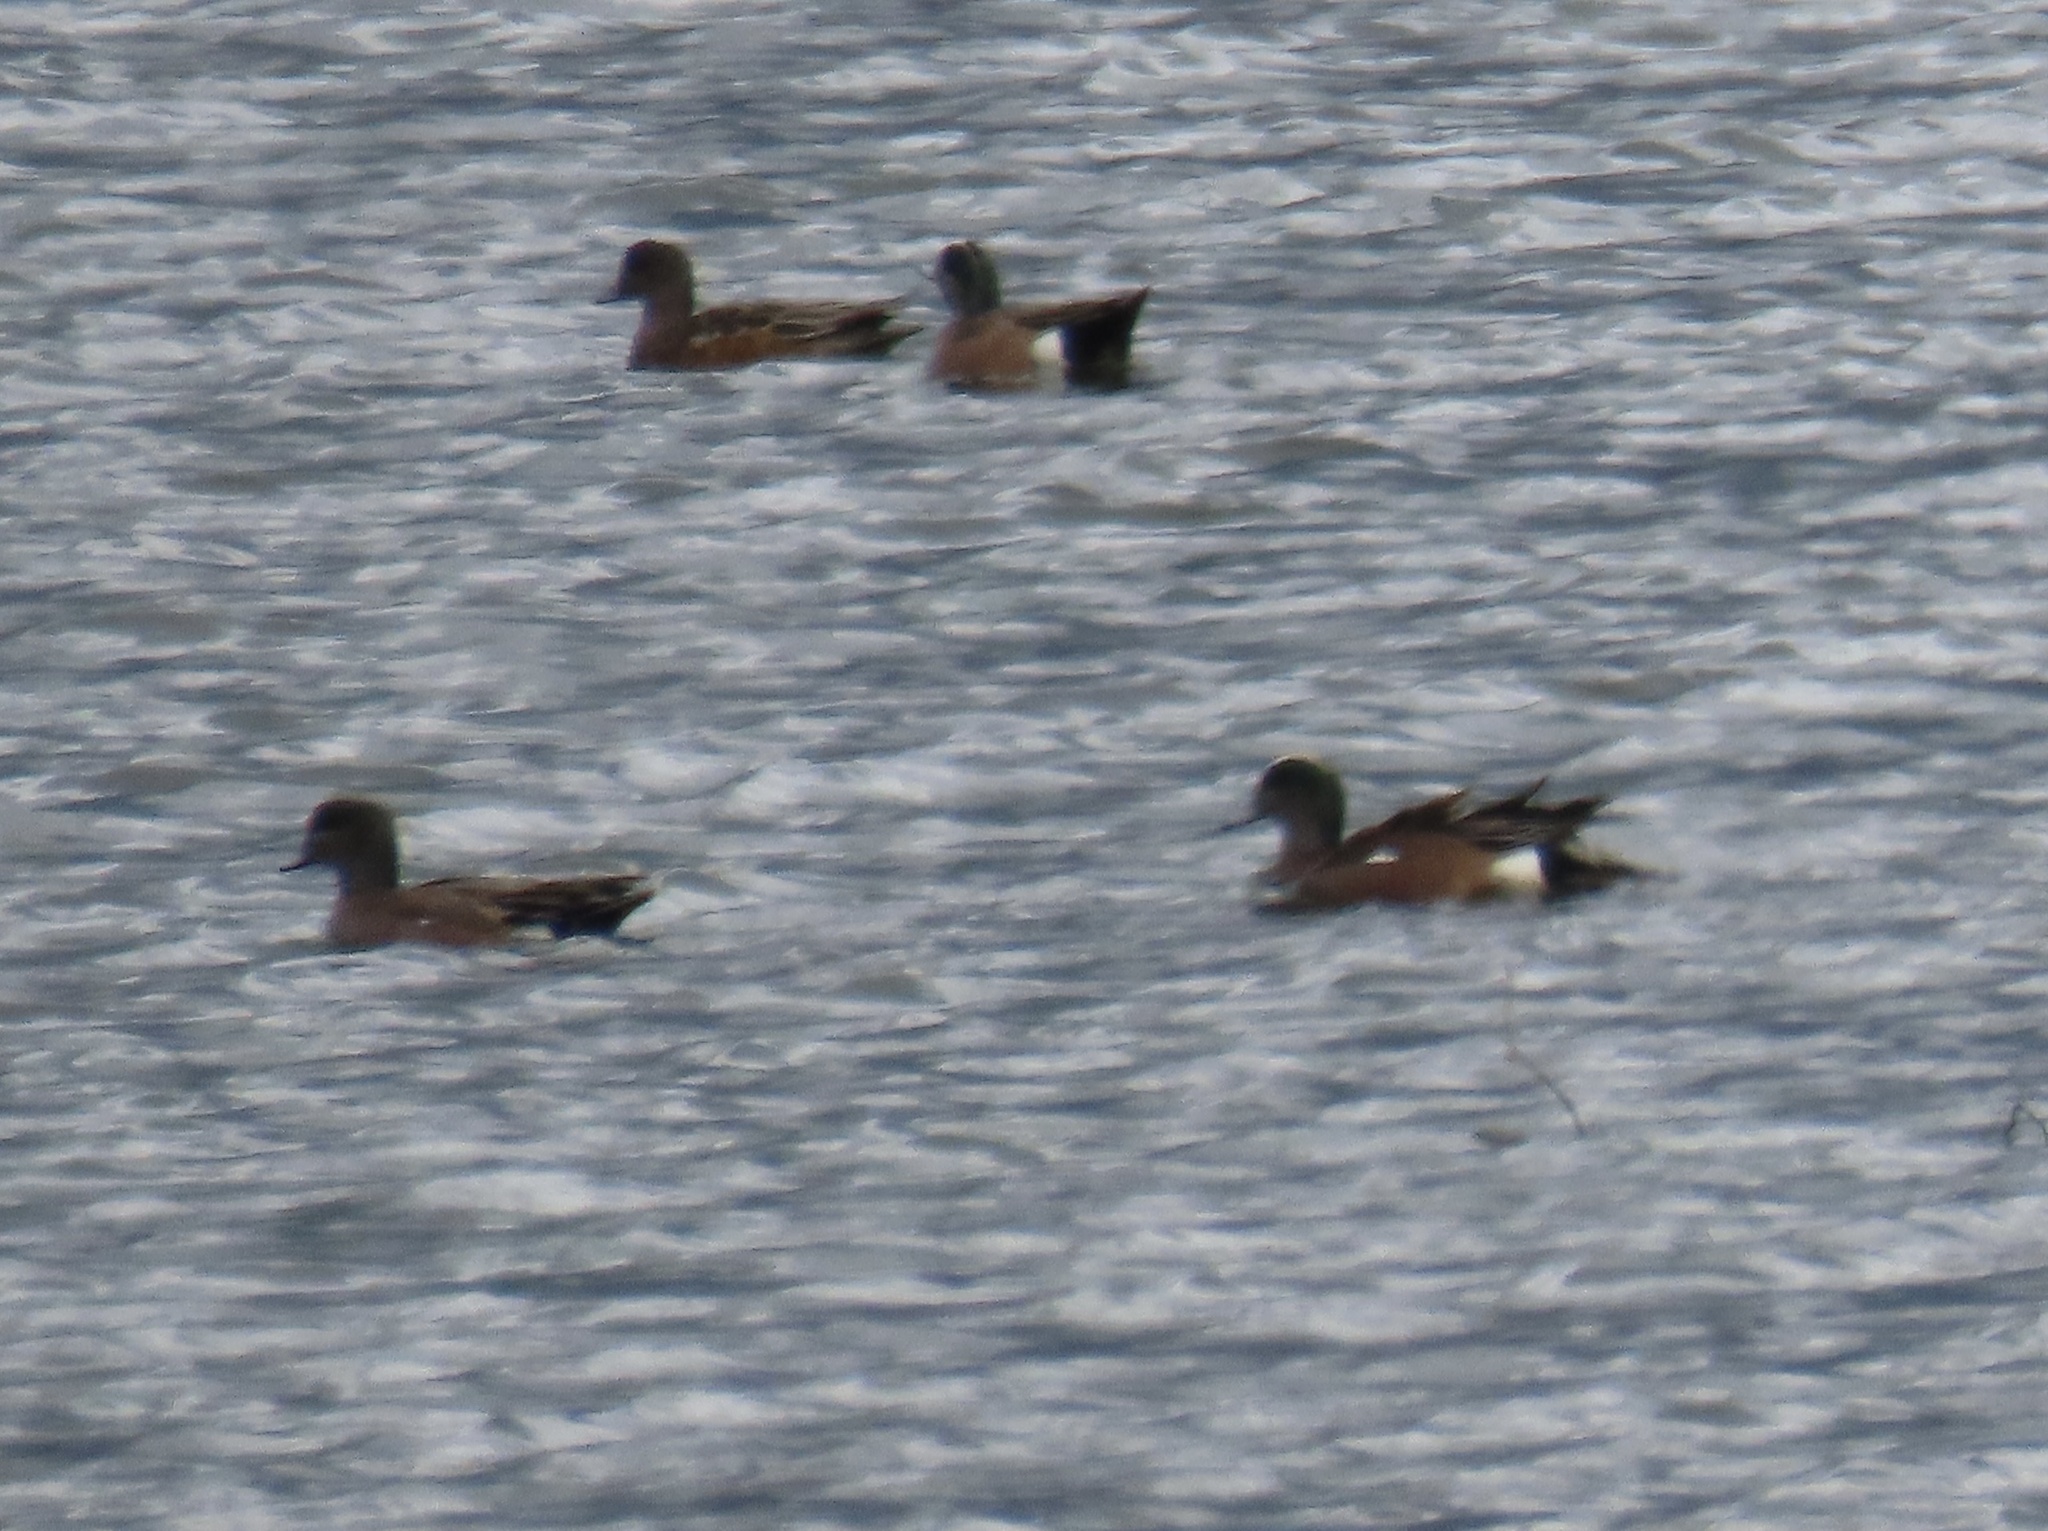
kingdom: Animalia
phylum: Chordata
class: Aves
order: Anseriformes
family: Anatidae
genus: Mareca
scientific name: Mareca americana
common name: American wigeon
